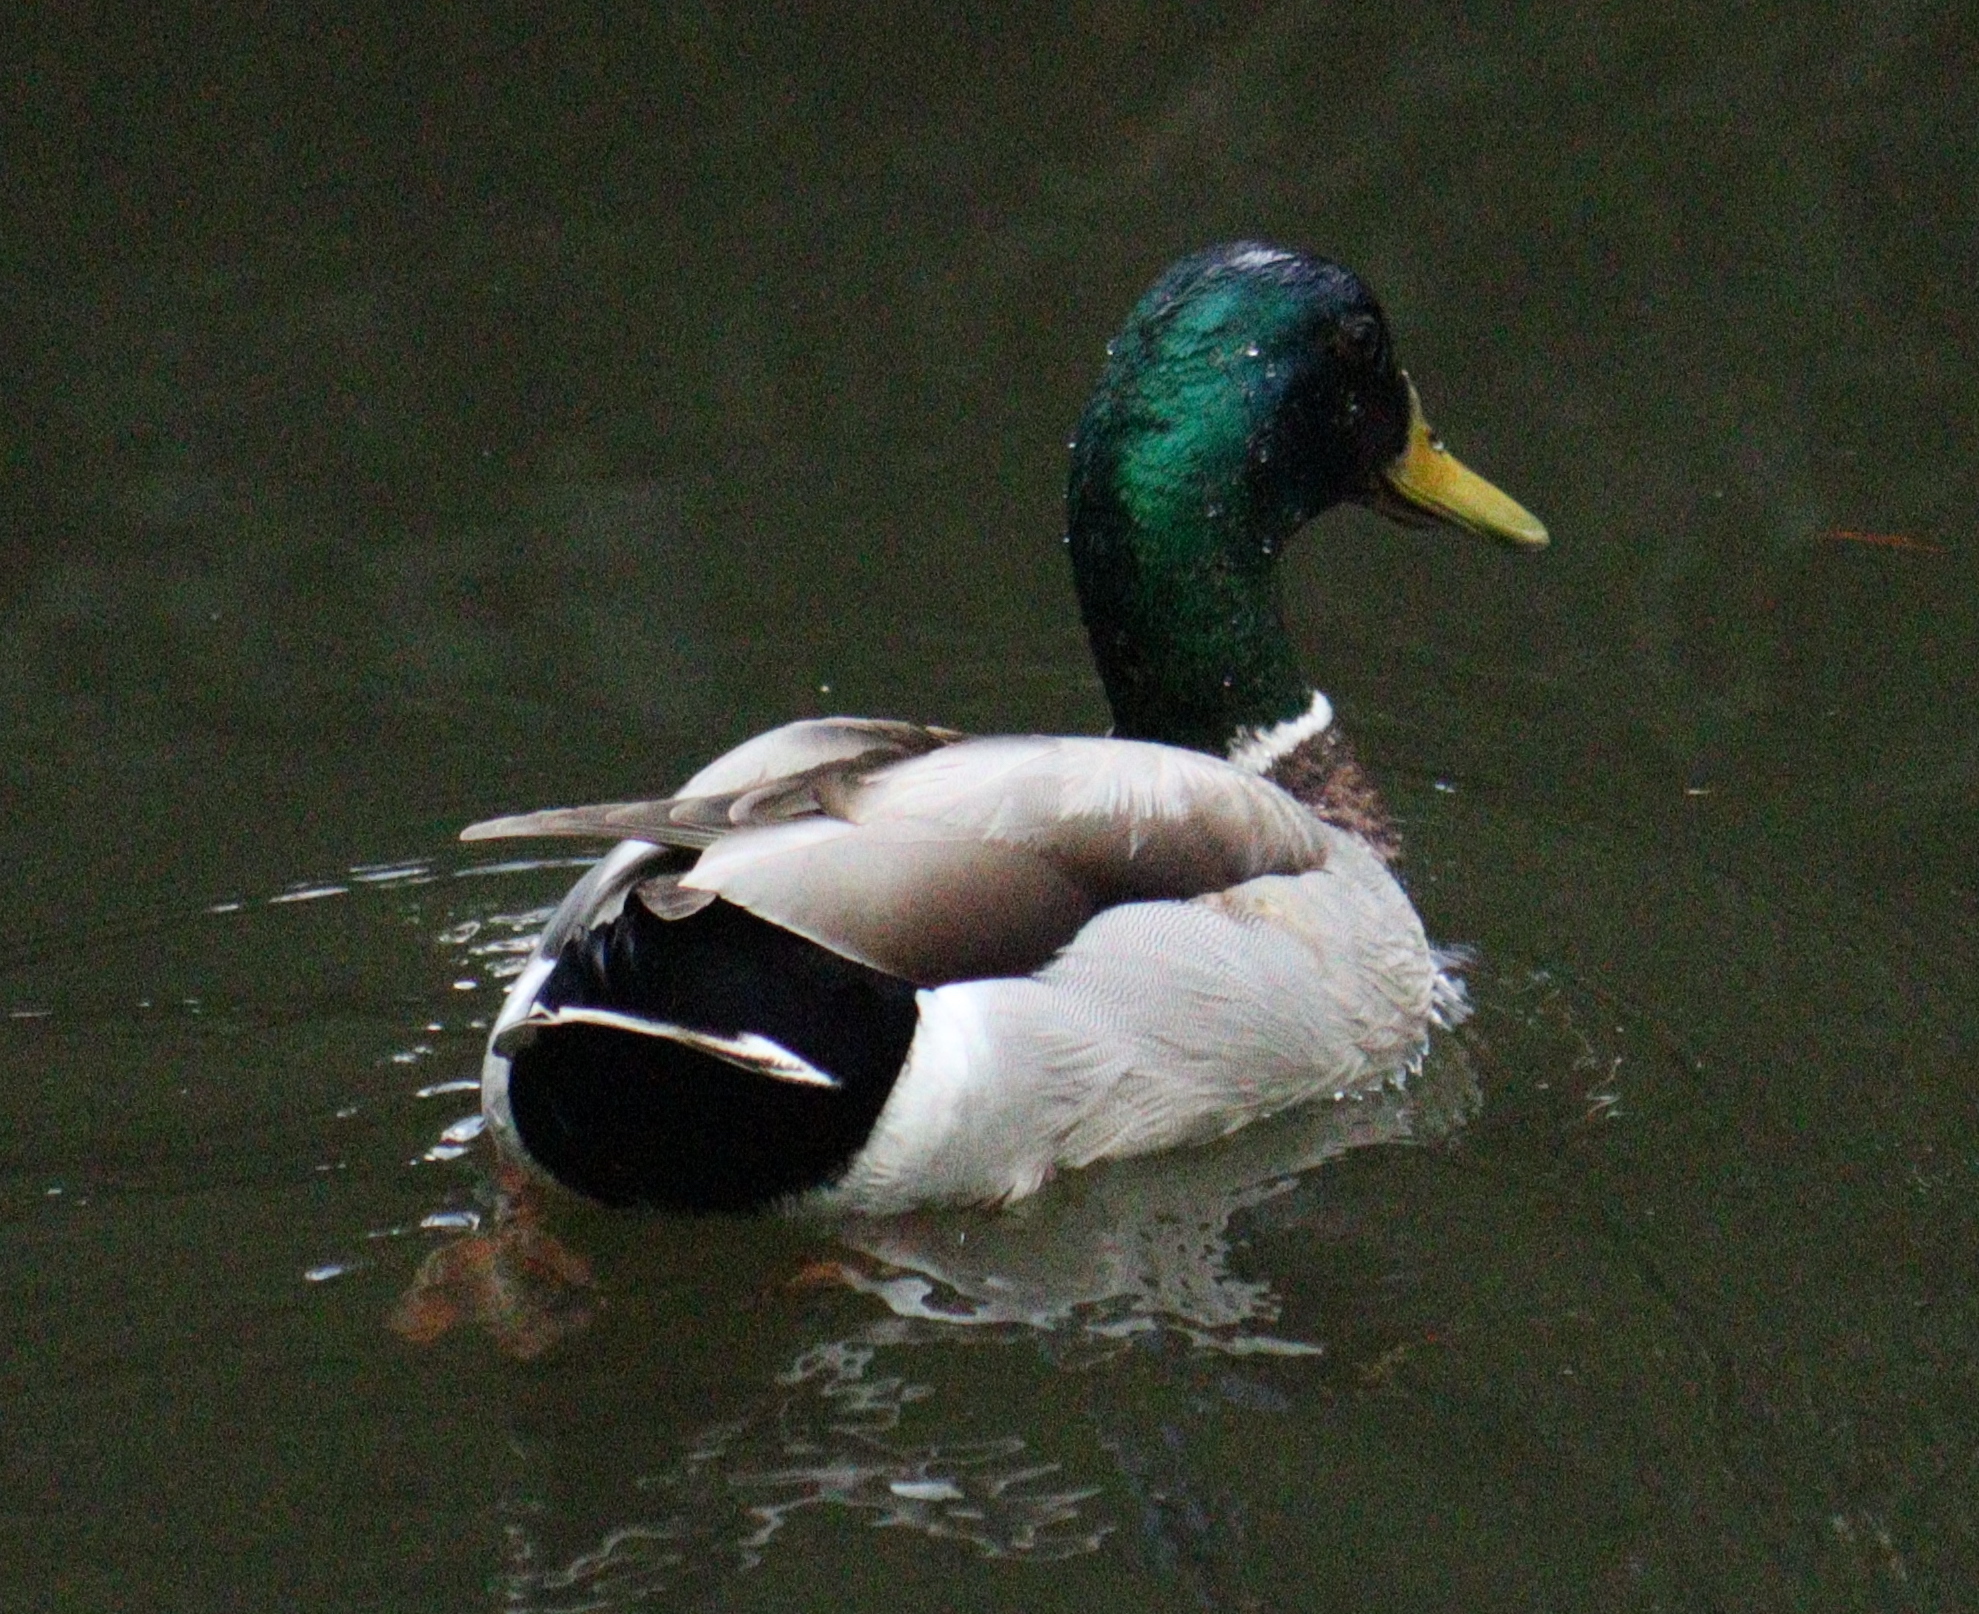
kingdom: Animalia
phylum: Chordata
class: Aves
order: Anseriformes
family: Anatidae
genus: Anas
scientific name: Anas platyrhynchos
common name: Mallard
